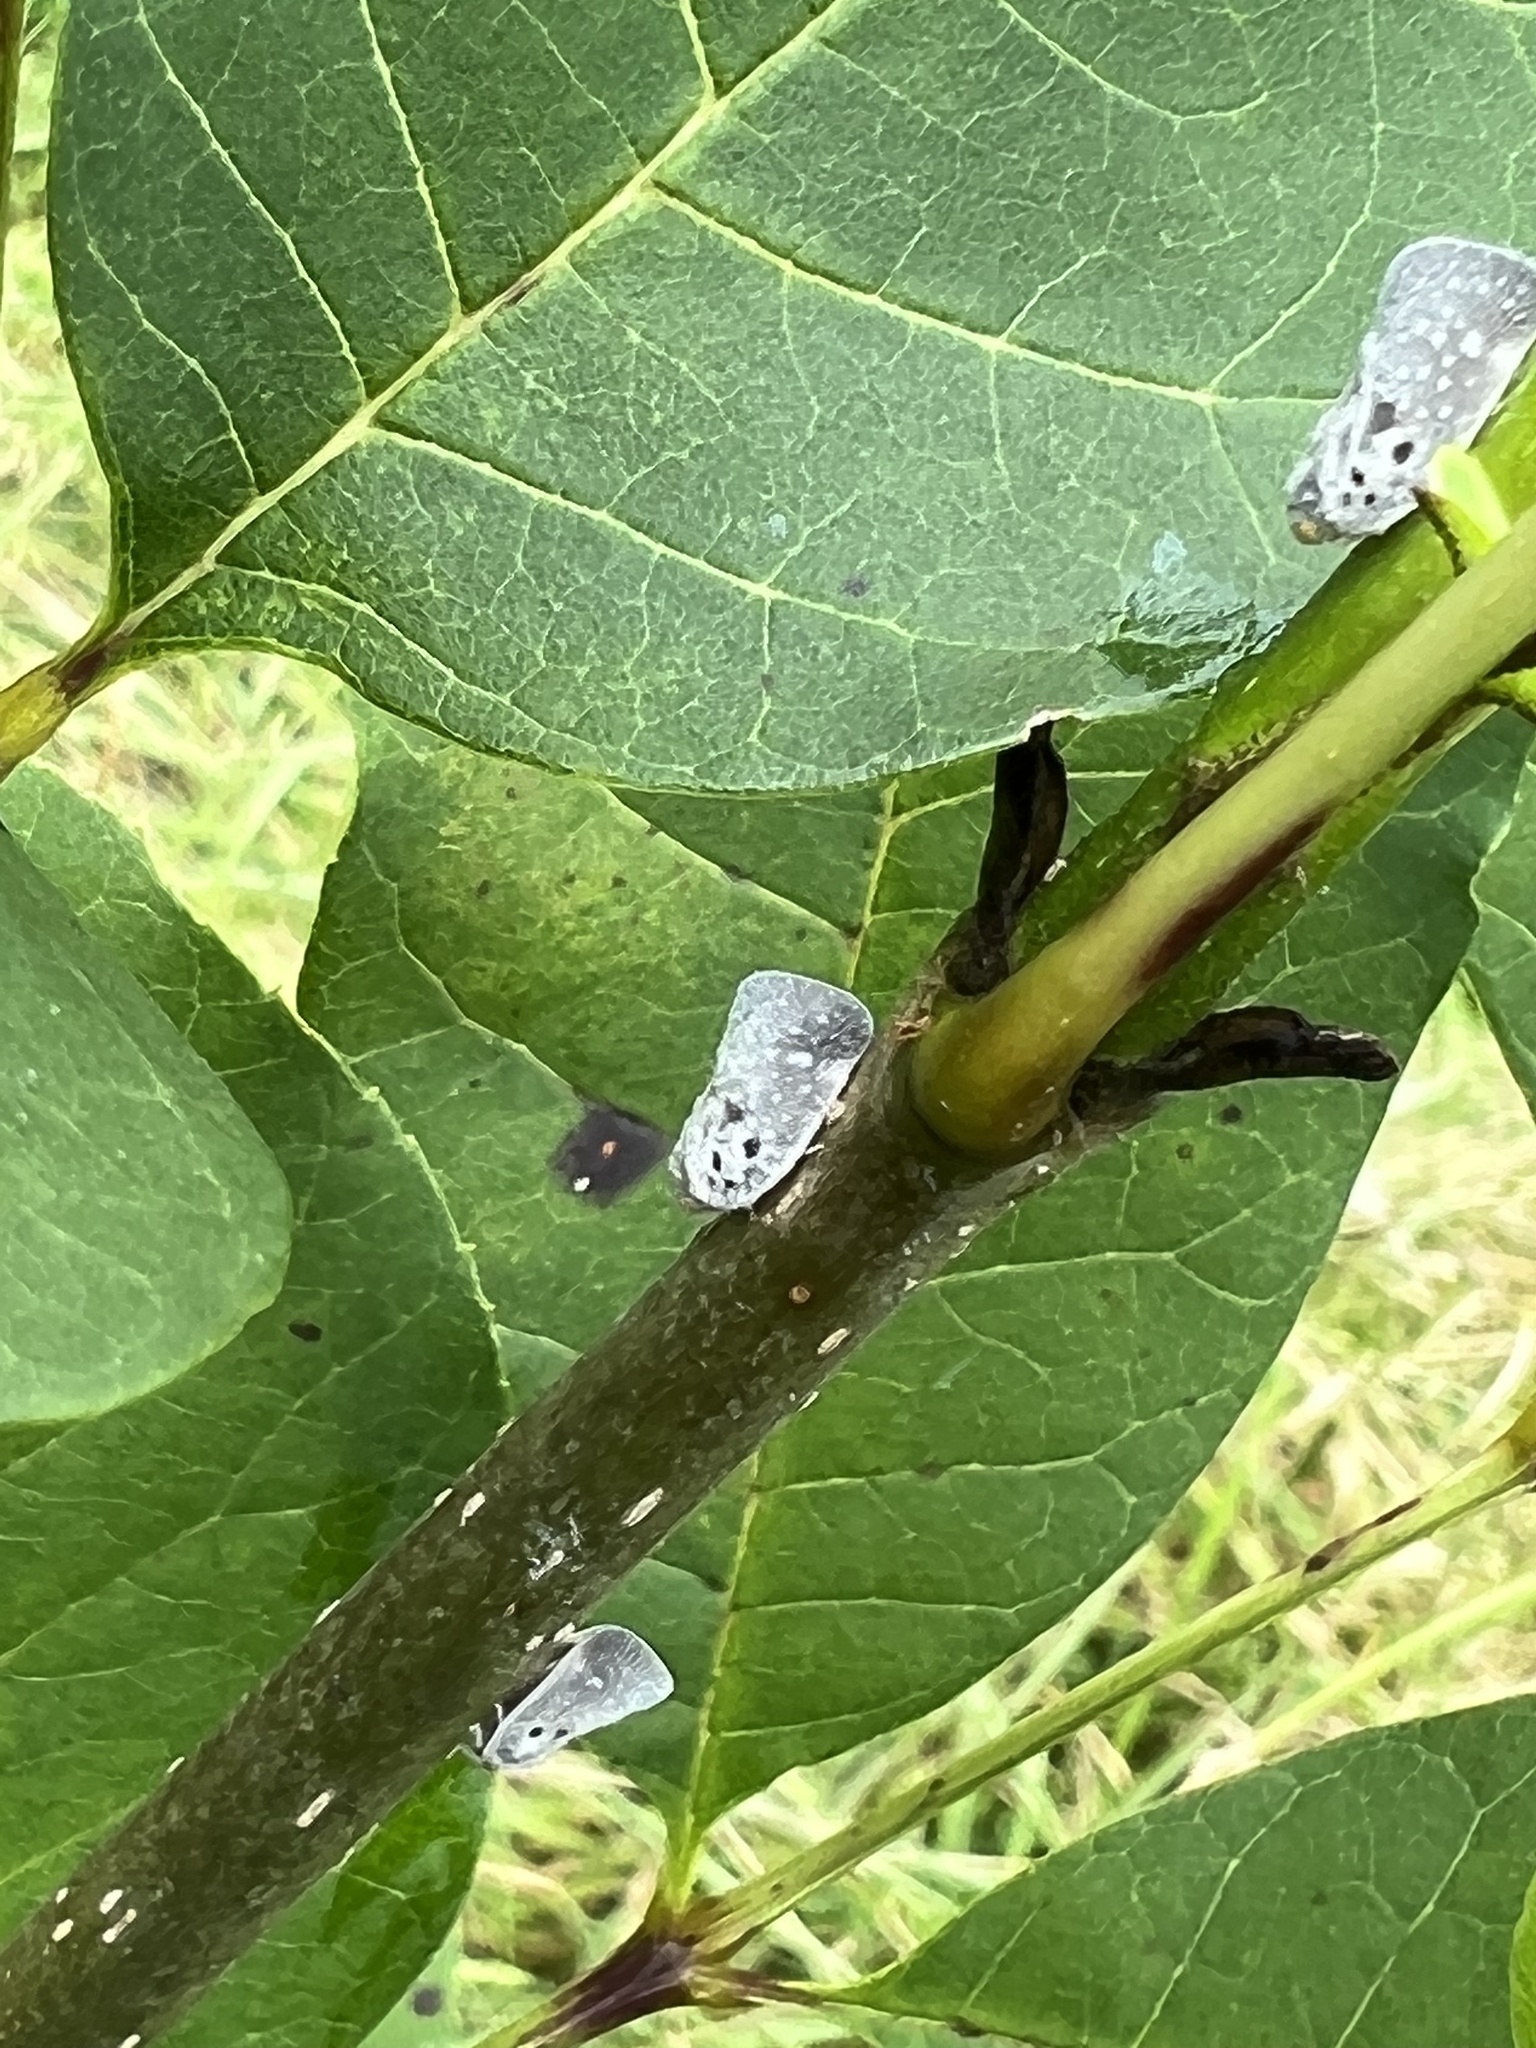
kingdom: Animalia
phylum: Arthropoda
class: Insecta
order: Hemiptera
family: Flatidae
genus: Metcalfa
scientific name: Metcalfa pruinosa
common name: Citrus flatid planthopper
